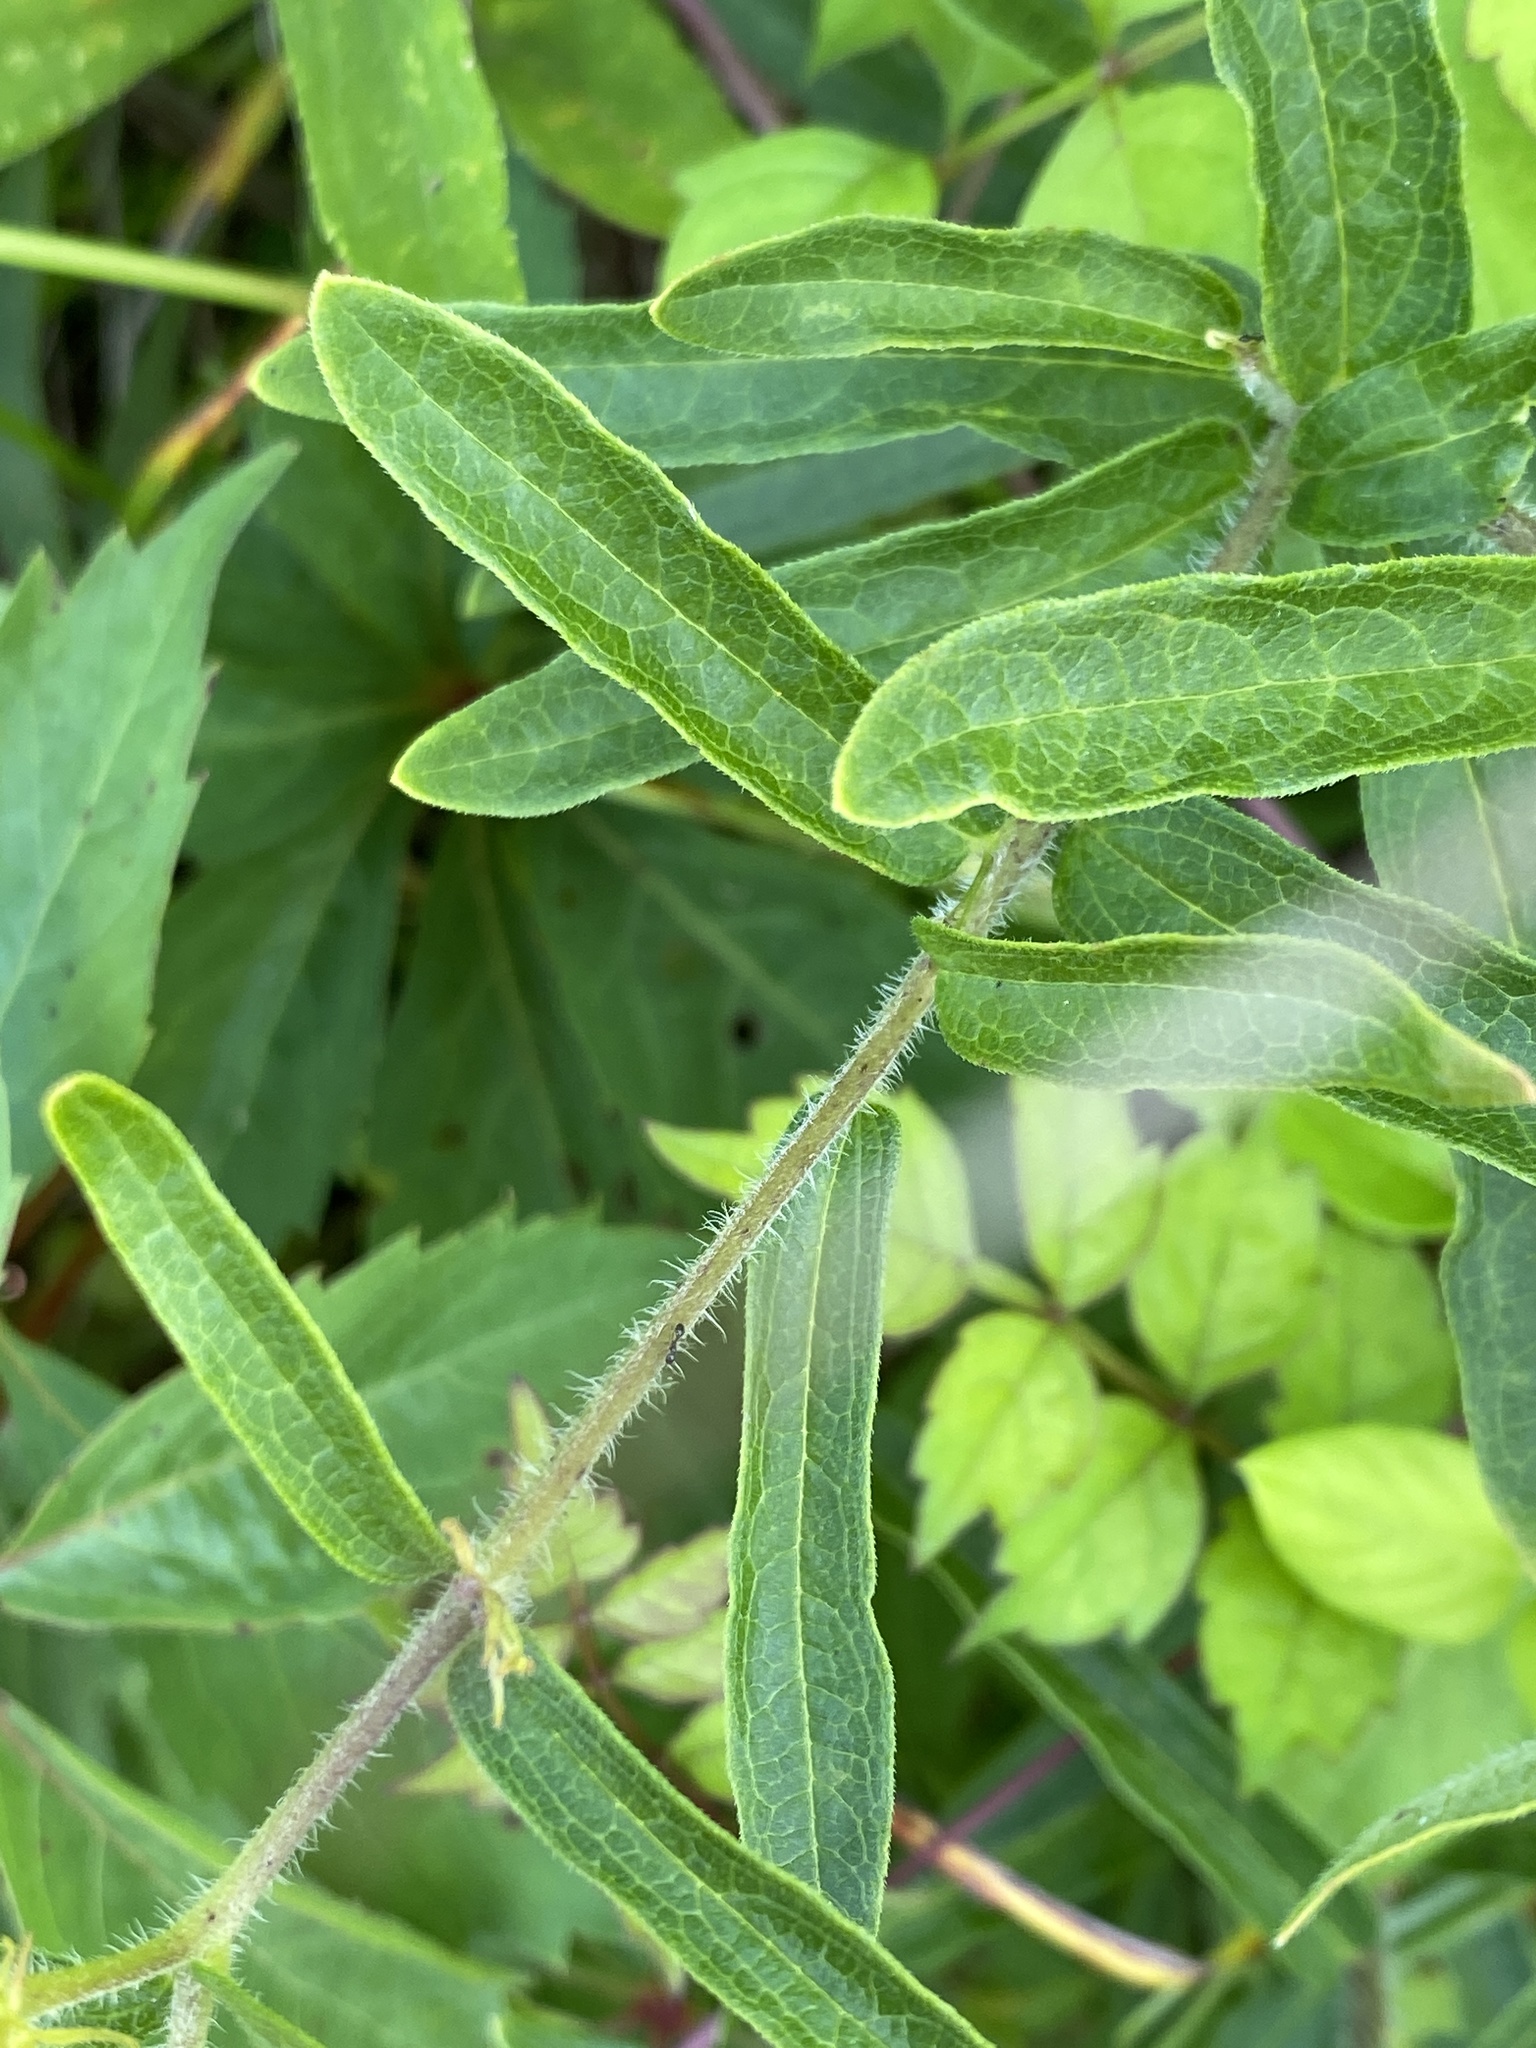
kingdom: Plantae
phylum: Tracheophyta
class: Magnoliopsida
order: Gentianales
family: Apocynaceae
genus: Asclepias
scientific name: Asclepias tuberosa
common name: Butterfly milkweed
